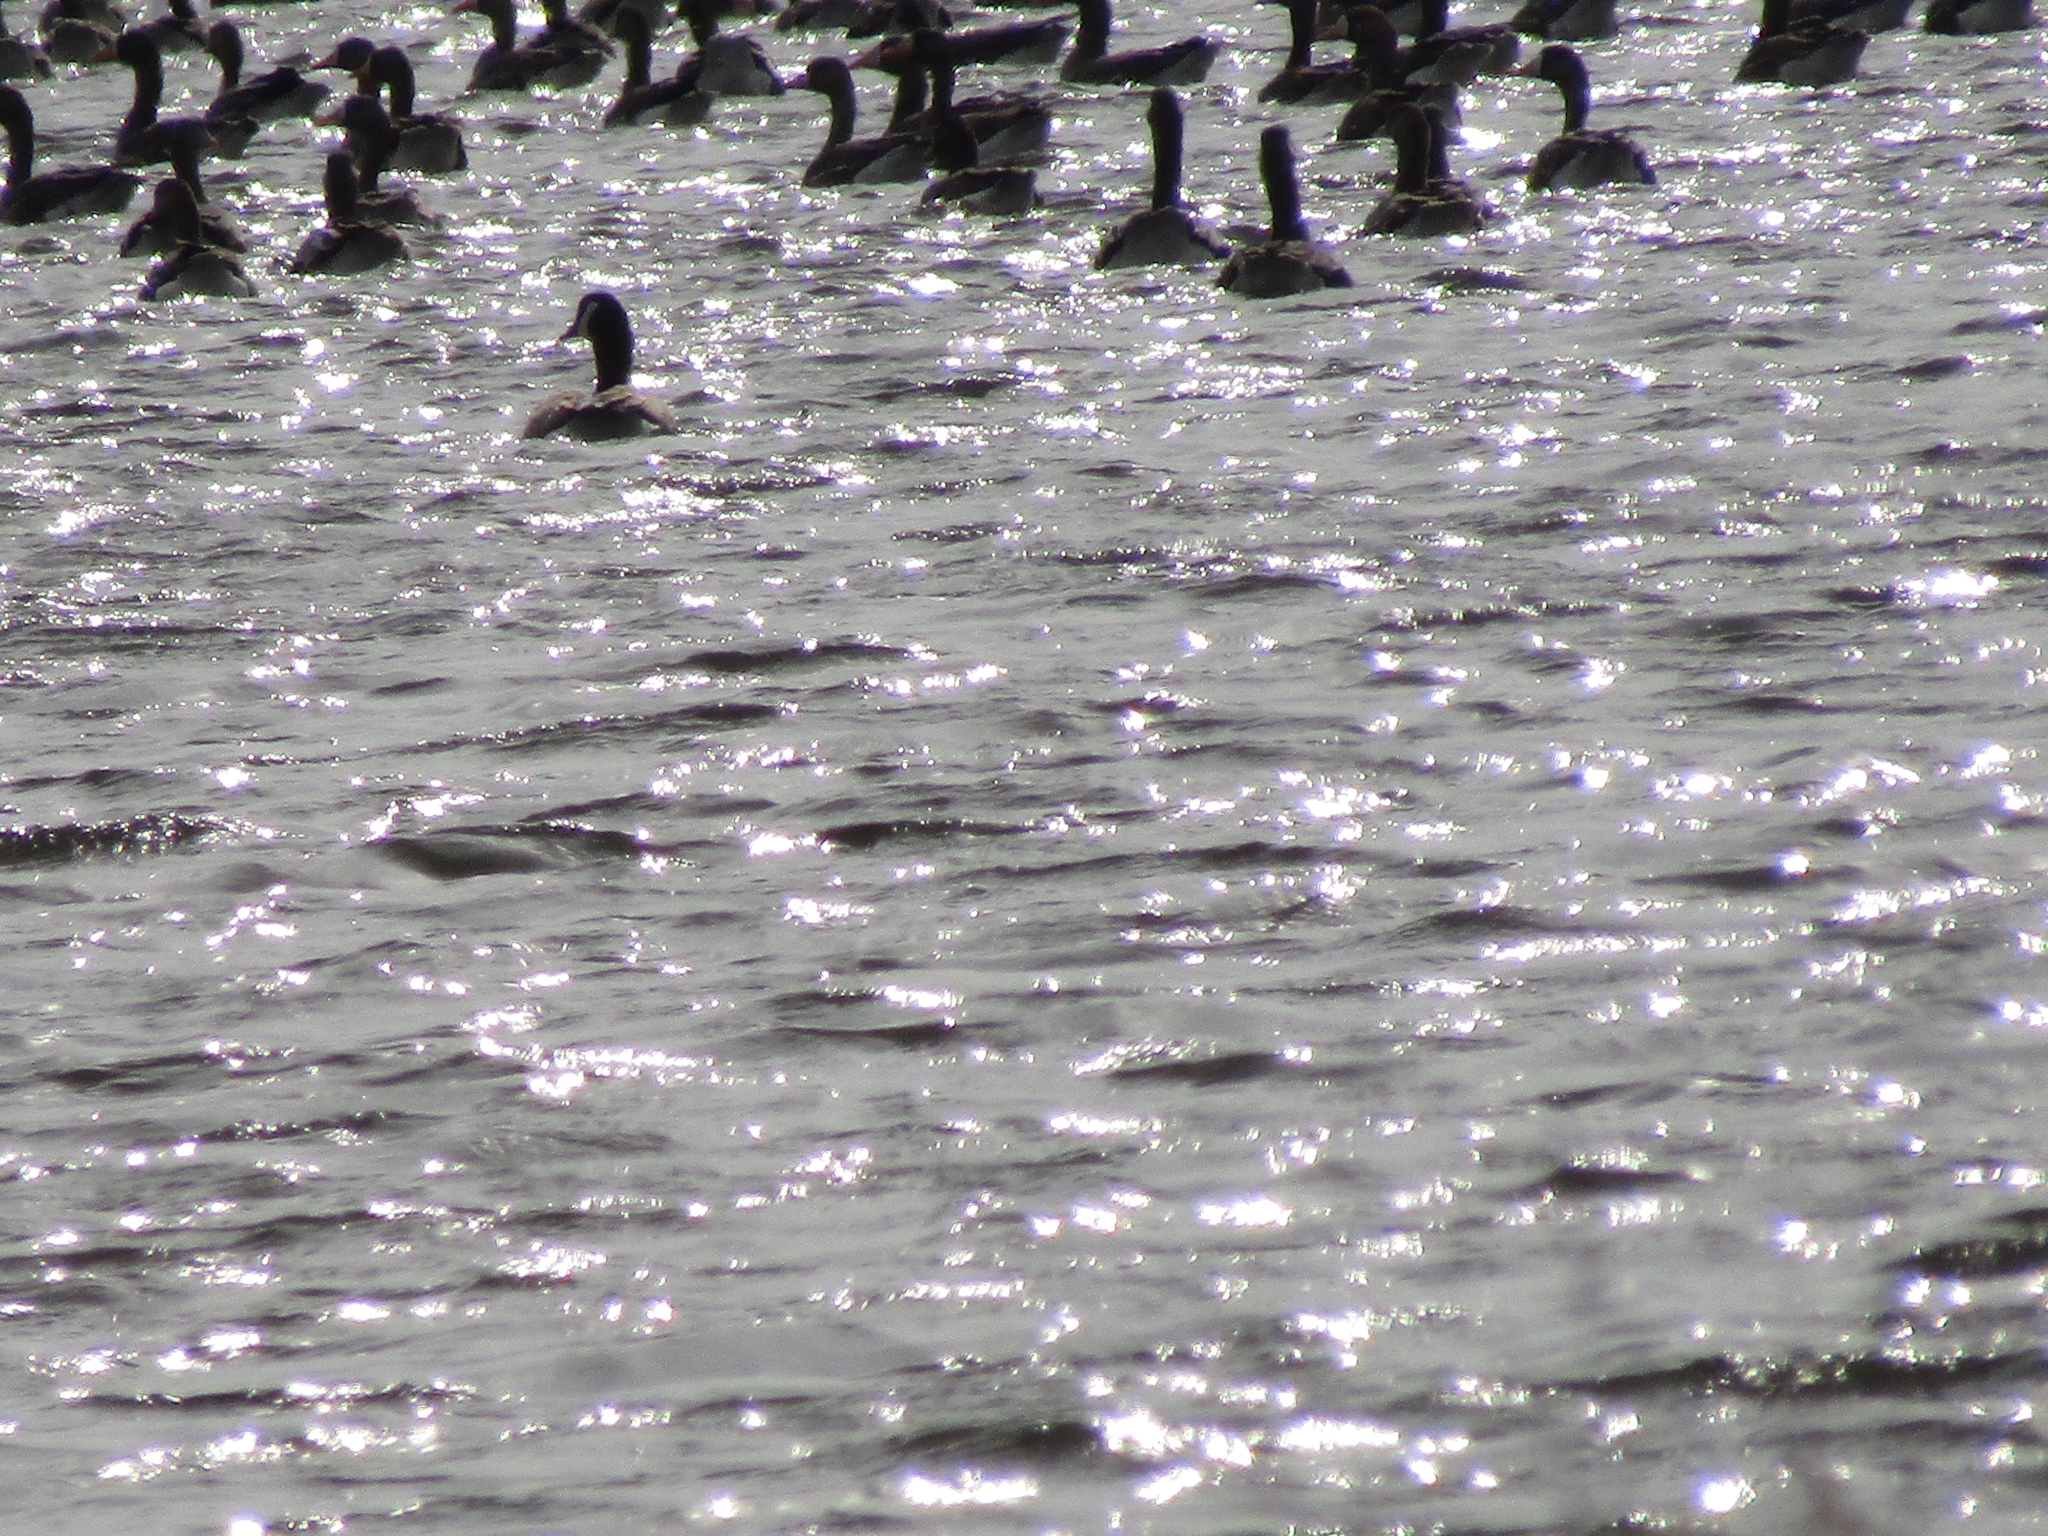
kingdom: Animalia
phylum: Chordata
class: Aves
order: Anseriformes
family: Anatidae
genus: Anser
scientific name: Anser albifrons
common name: Greater white-fronted goose
